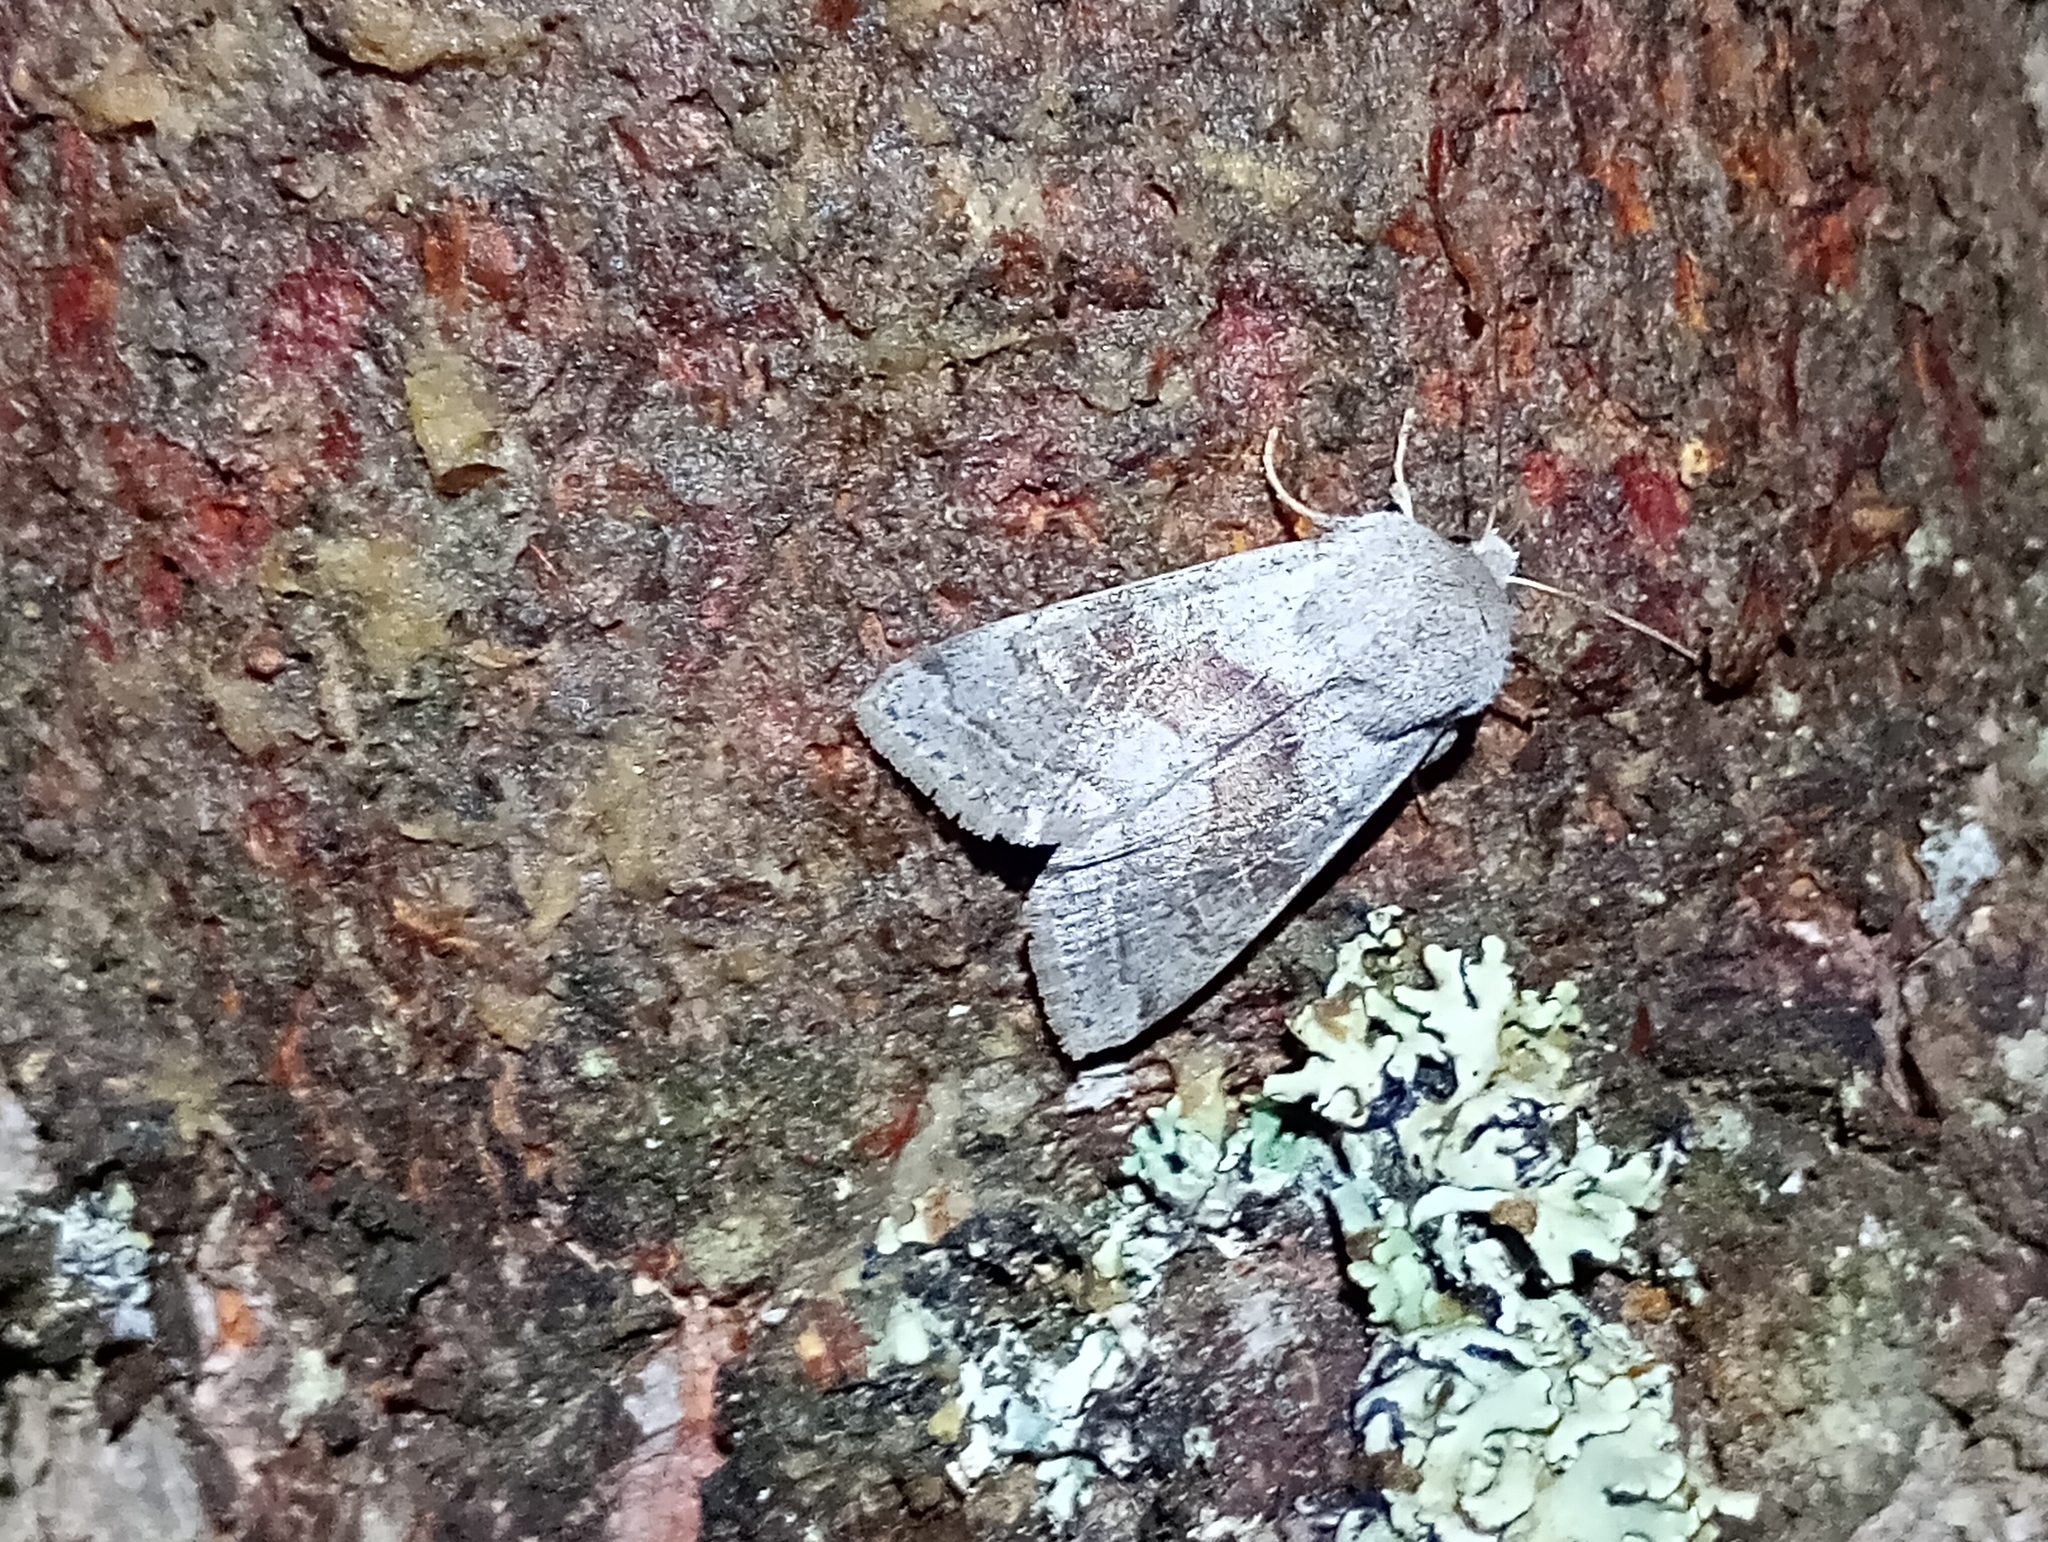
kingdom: Animalia
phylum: Arthropoda
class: Insecta
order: Lepidoptera
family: Noctuidae
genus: Orthosia
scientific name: Orthosia opima
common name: Northern drab
